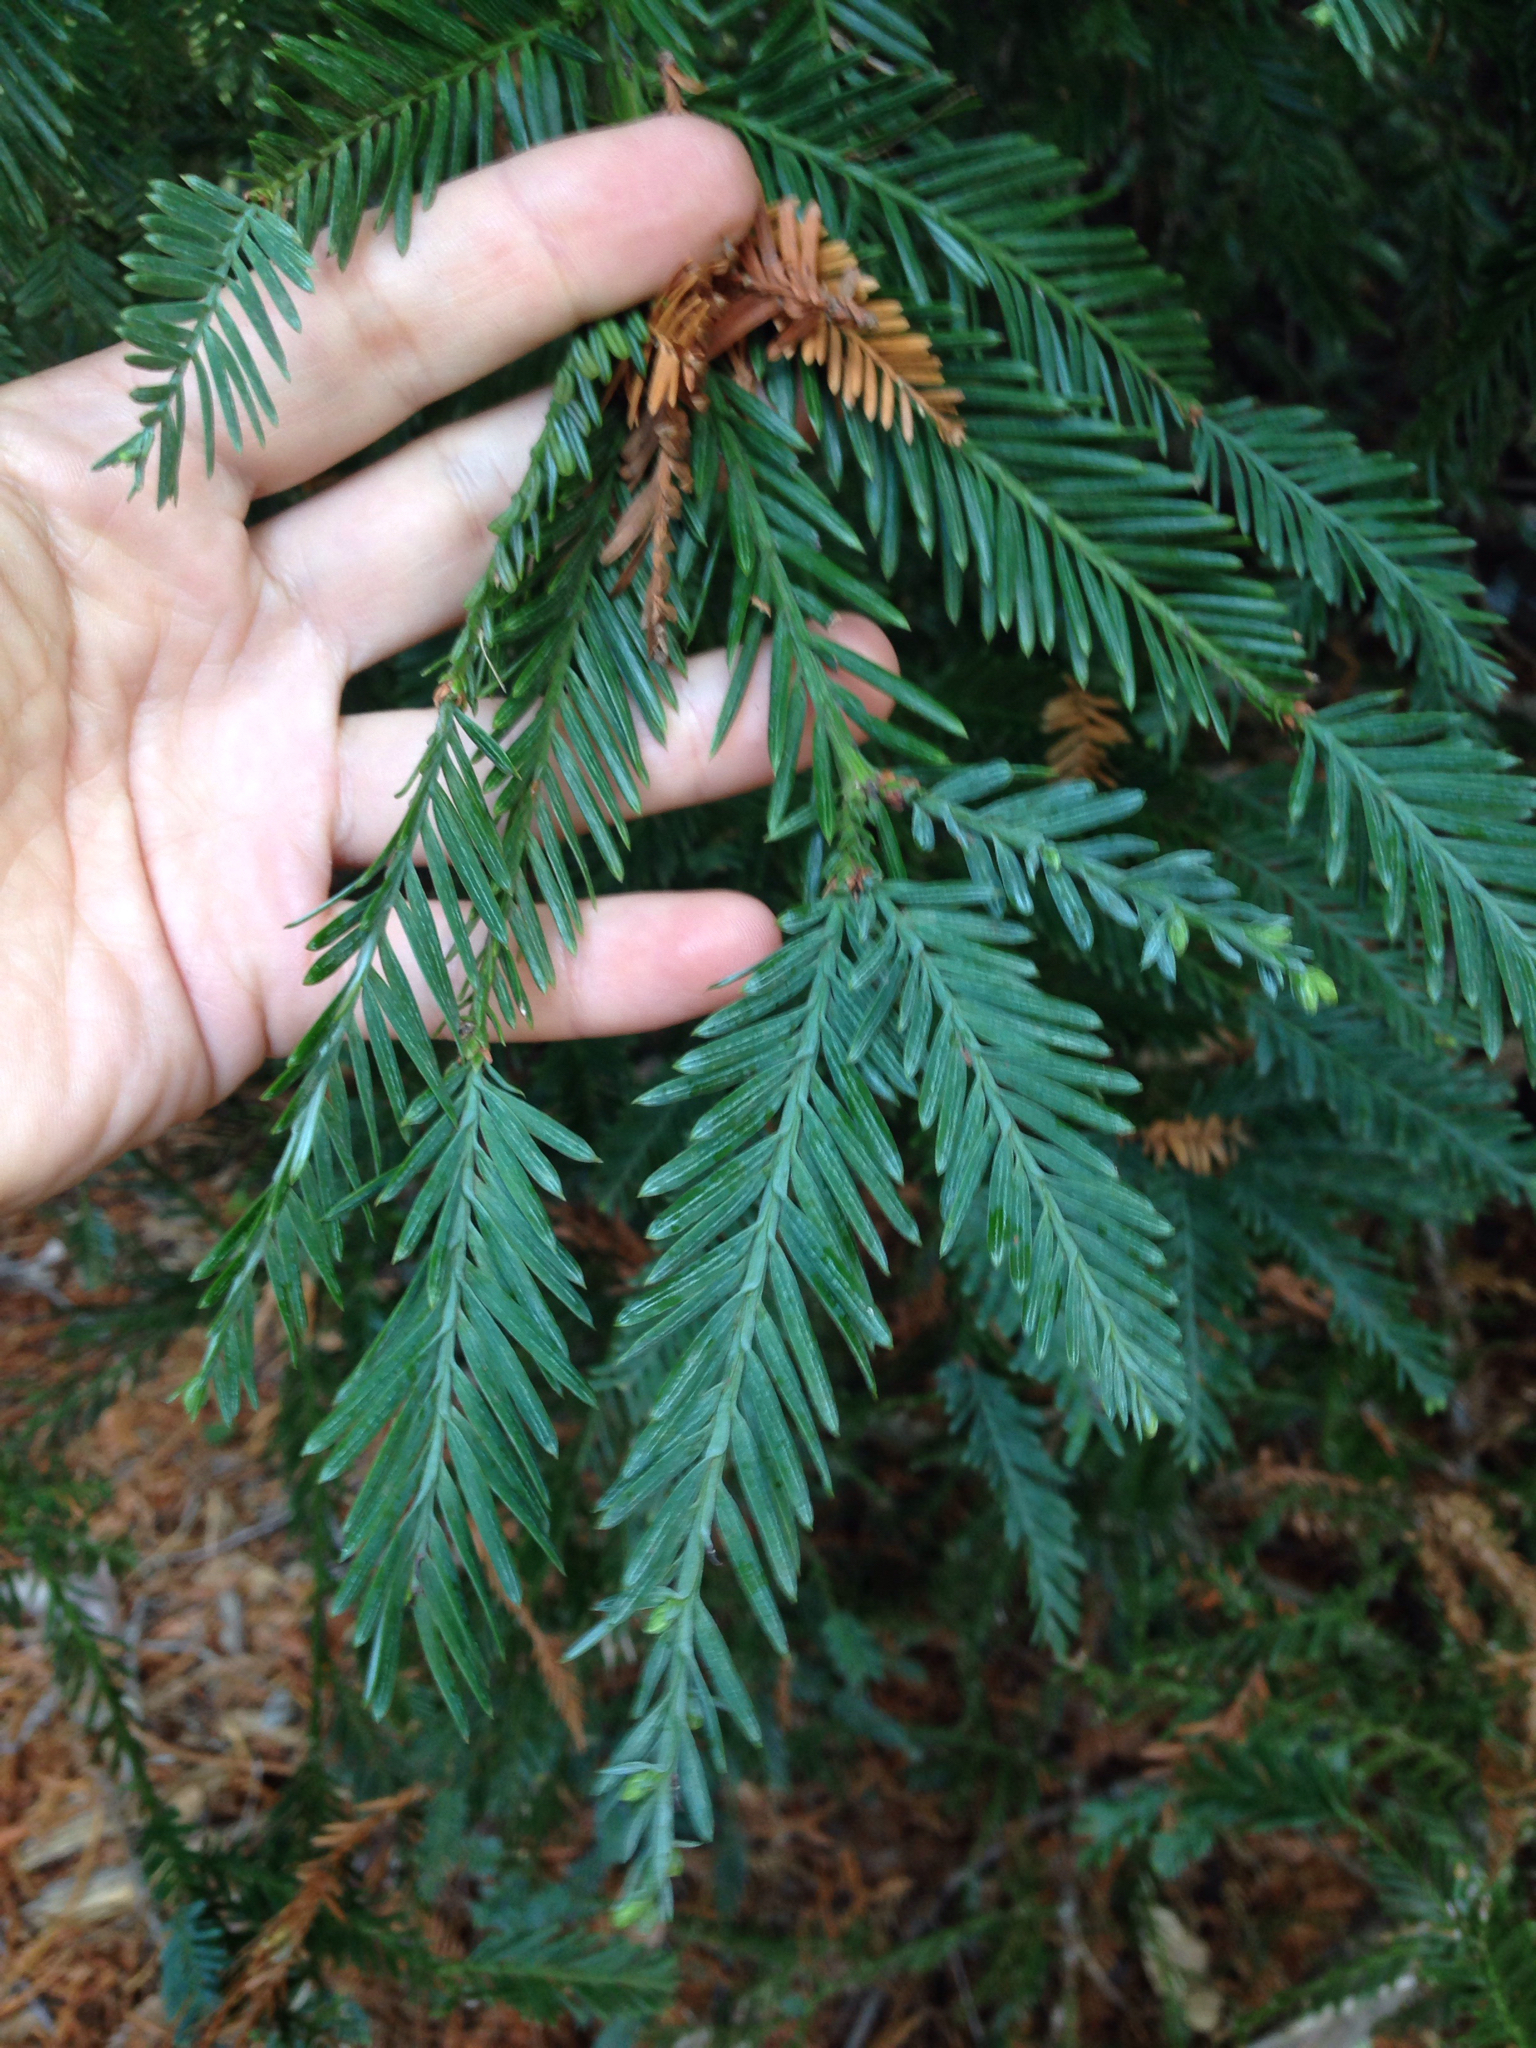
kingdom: Plantae
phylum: Tracheophyta
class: Pinopsida
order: Pinales
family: Cupressaceae
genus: Sequoia
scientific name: Sequoia sempervirens
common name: Coast redwood
